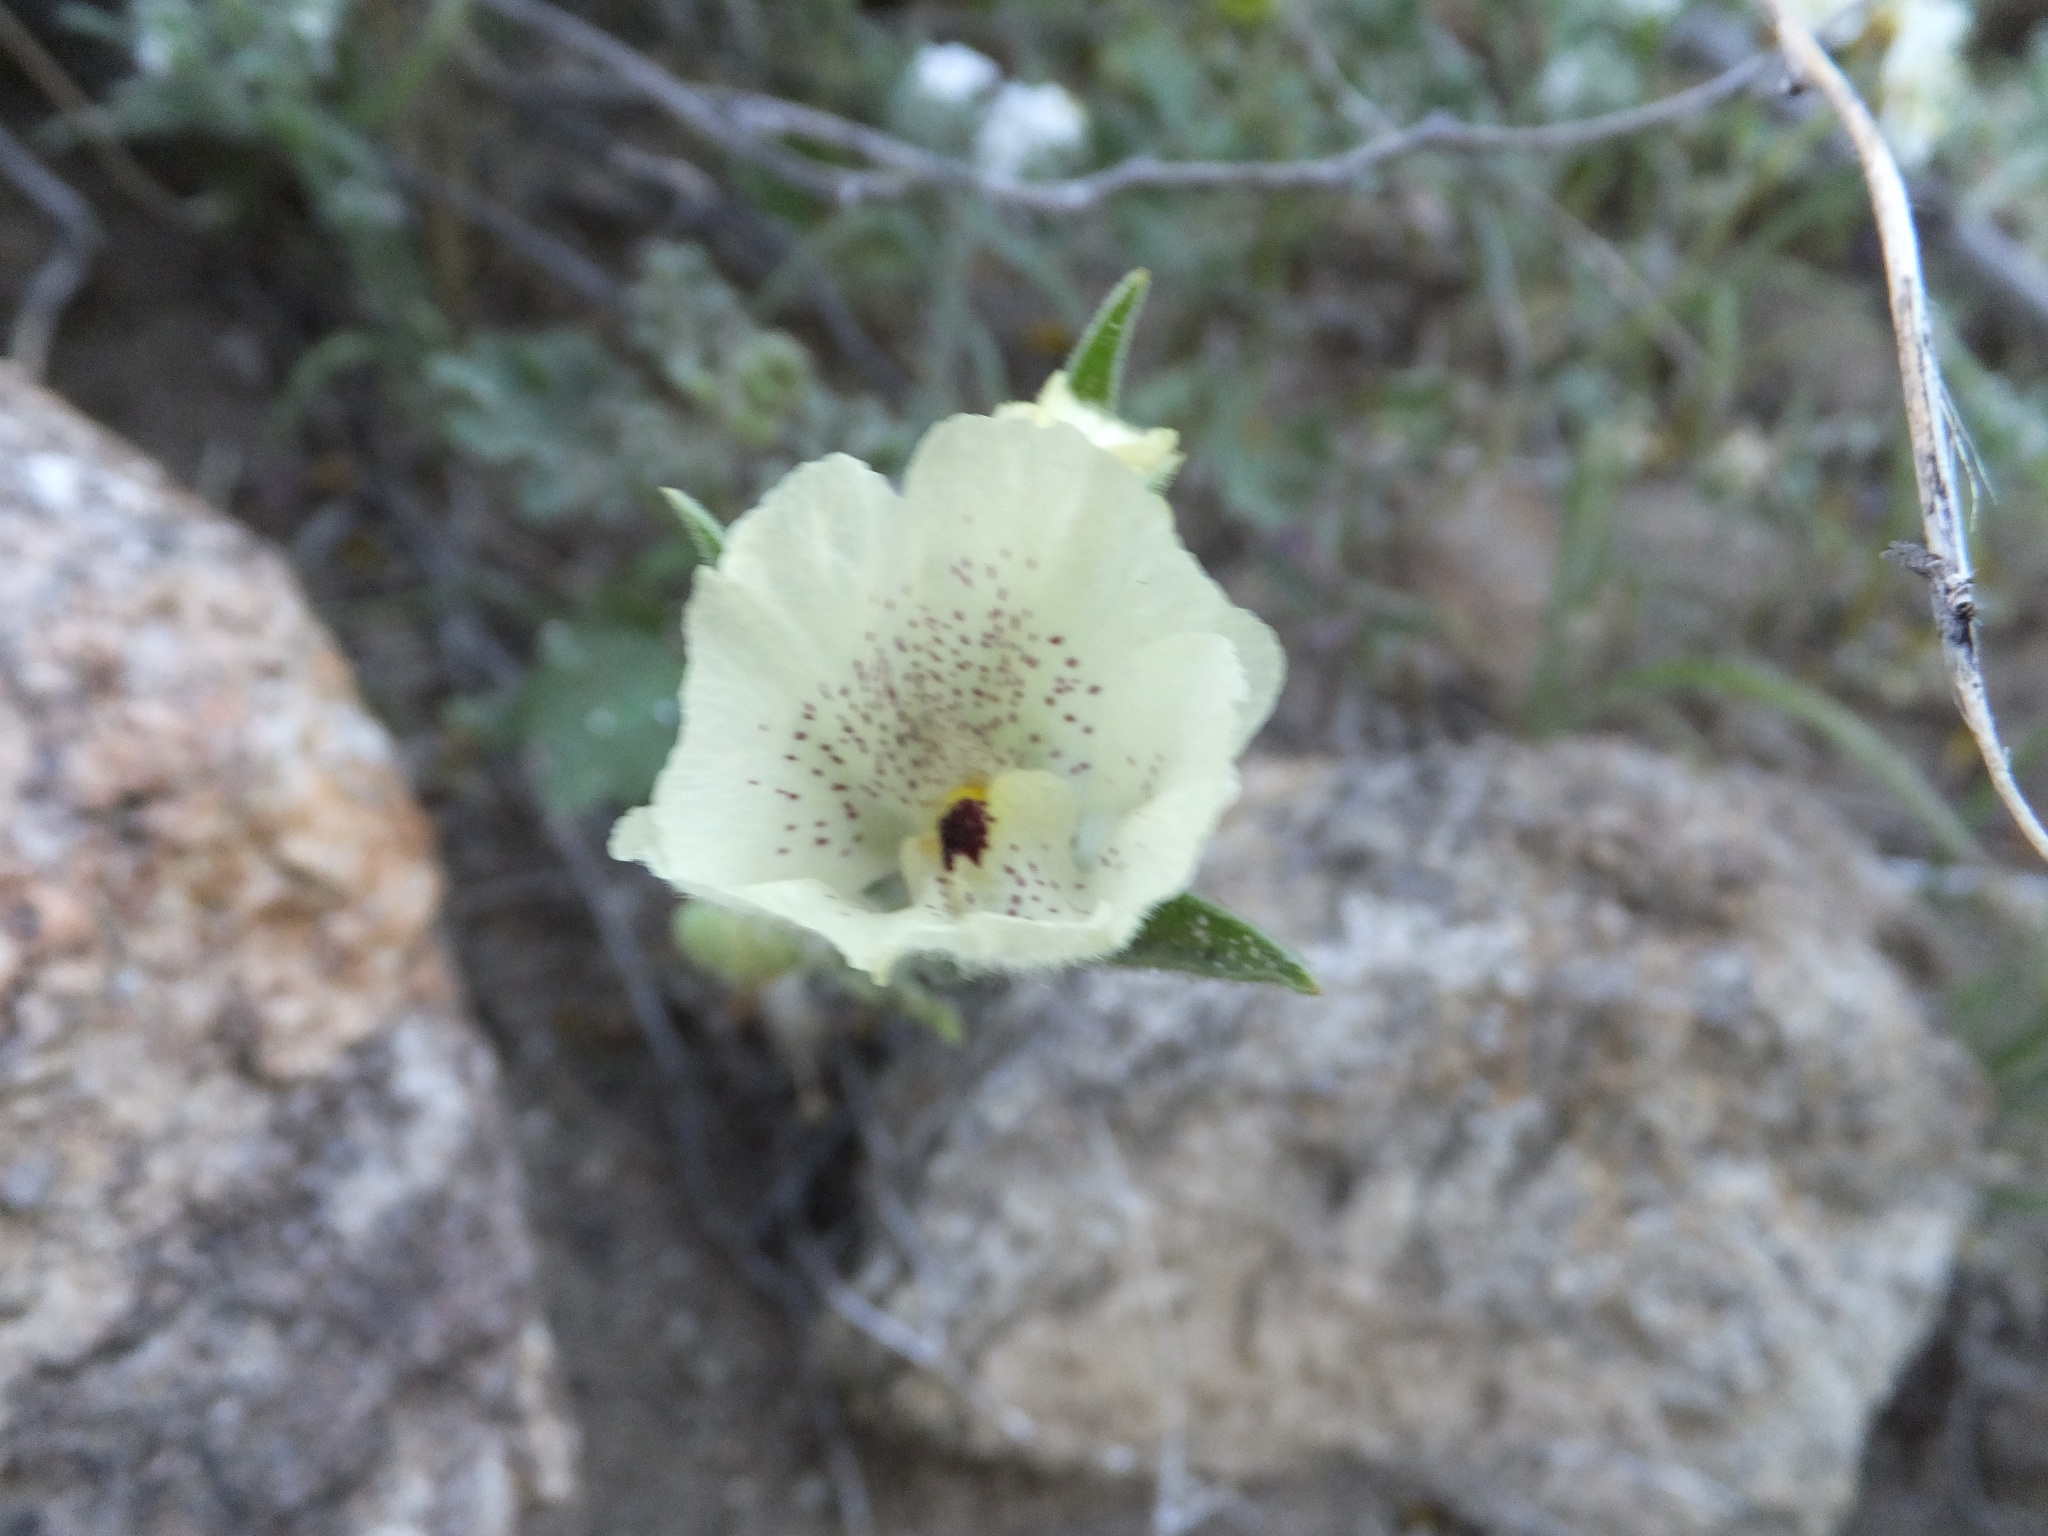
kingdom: Plantae
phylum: Tracheophyta
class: Magnoliopsida
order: Lamiales
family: Plantaginaceae
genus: Mohavea
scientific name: Mohavea confertiflora
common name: Ghost flower
